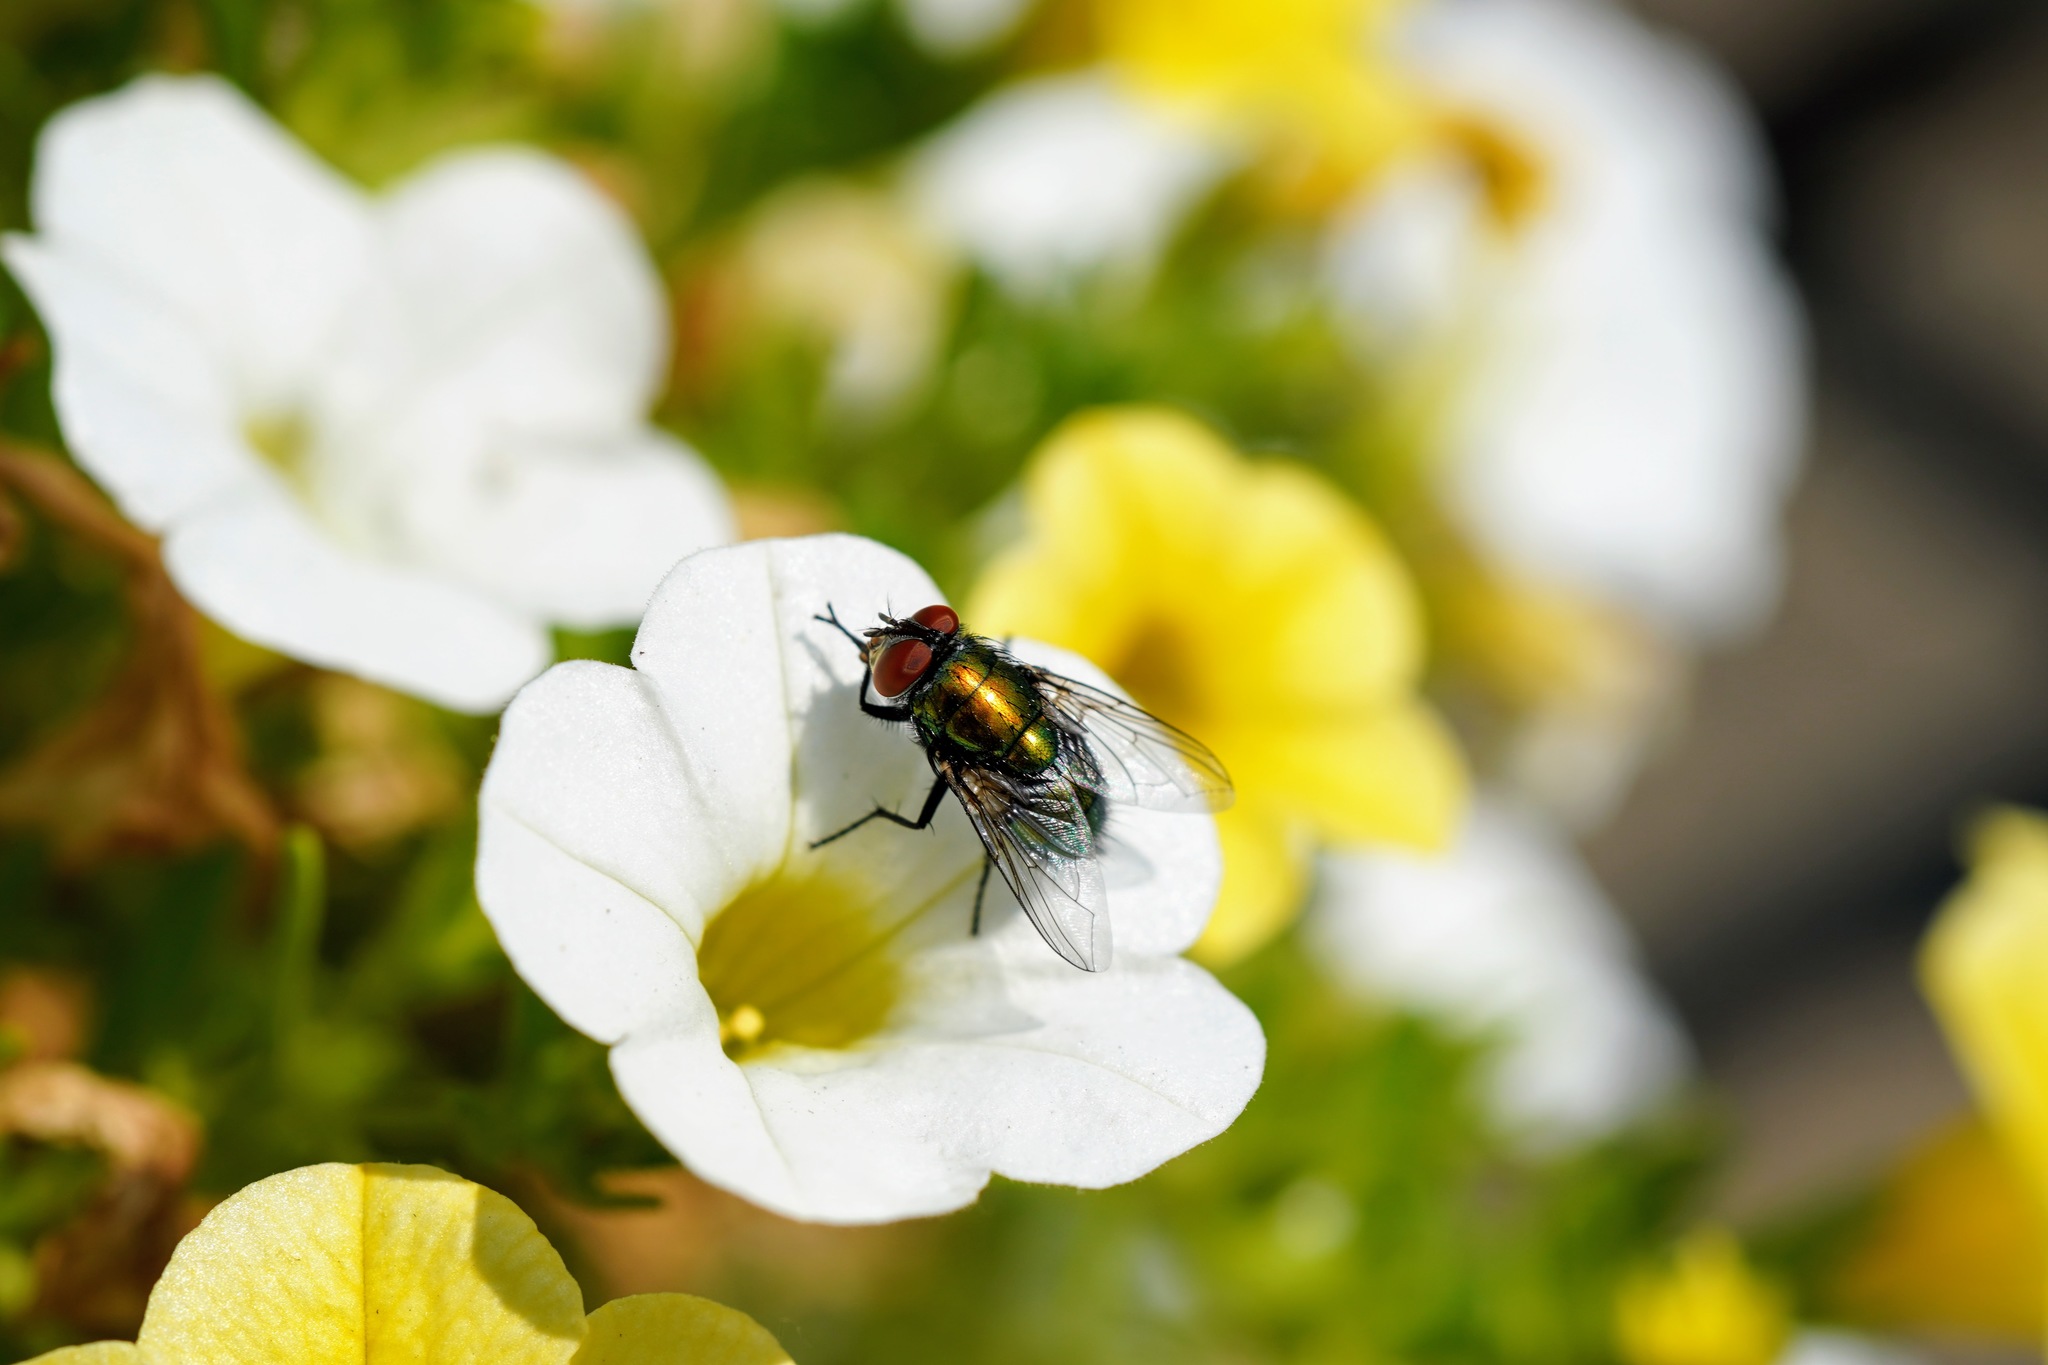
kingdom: Animalia
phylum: Arthropoda
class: Insecta
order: Diptera
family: Calliphoridae
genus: Lucilia
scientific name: Lucilia sericata
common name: Blow fly
